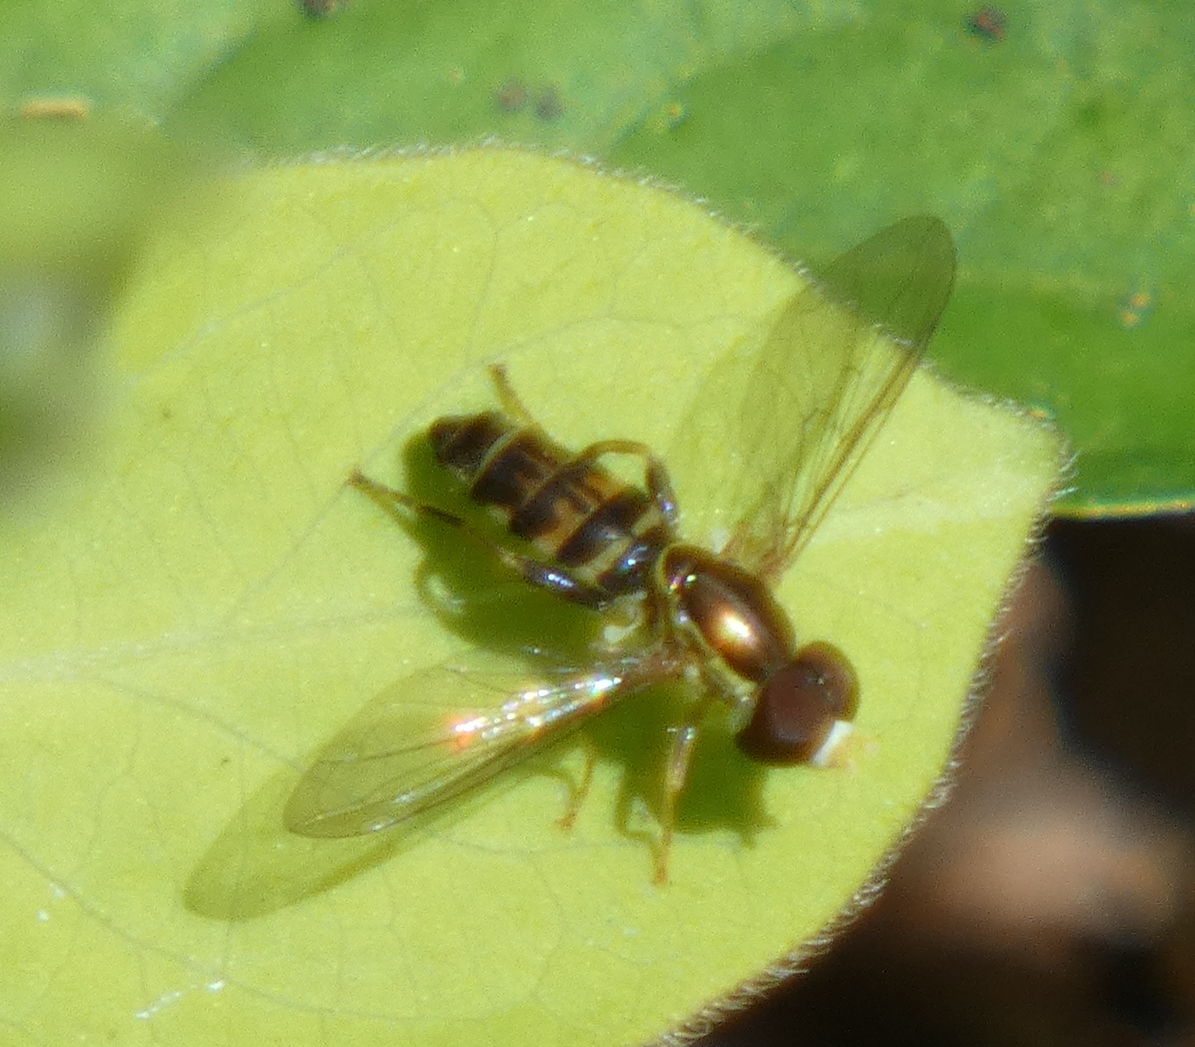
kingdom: Animalia
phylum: Arthropoda
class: Insecta
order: Diptera
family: Syrphidae
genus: Toxomerus
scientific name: Toxomerus geminatus
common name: Eastern calligrapher
